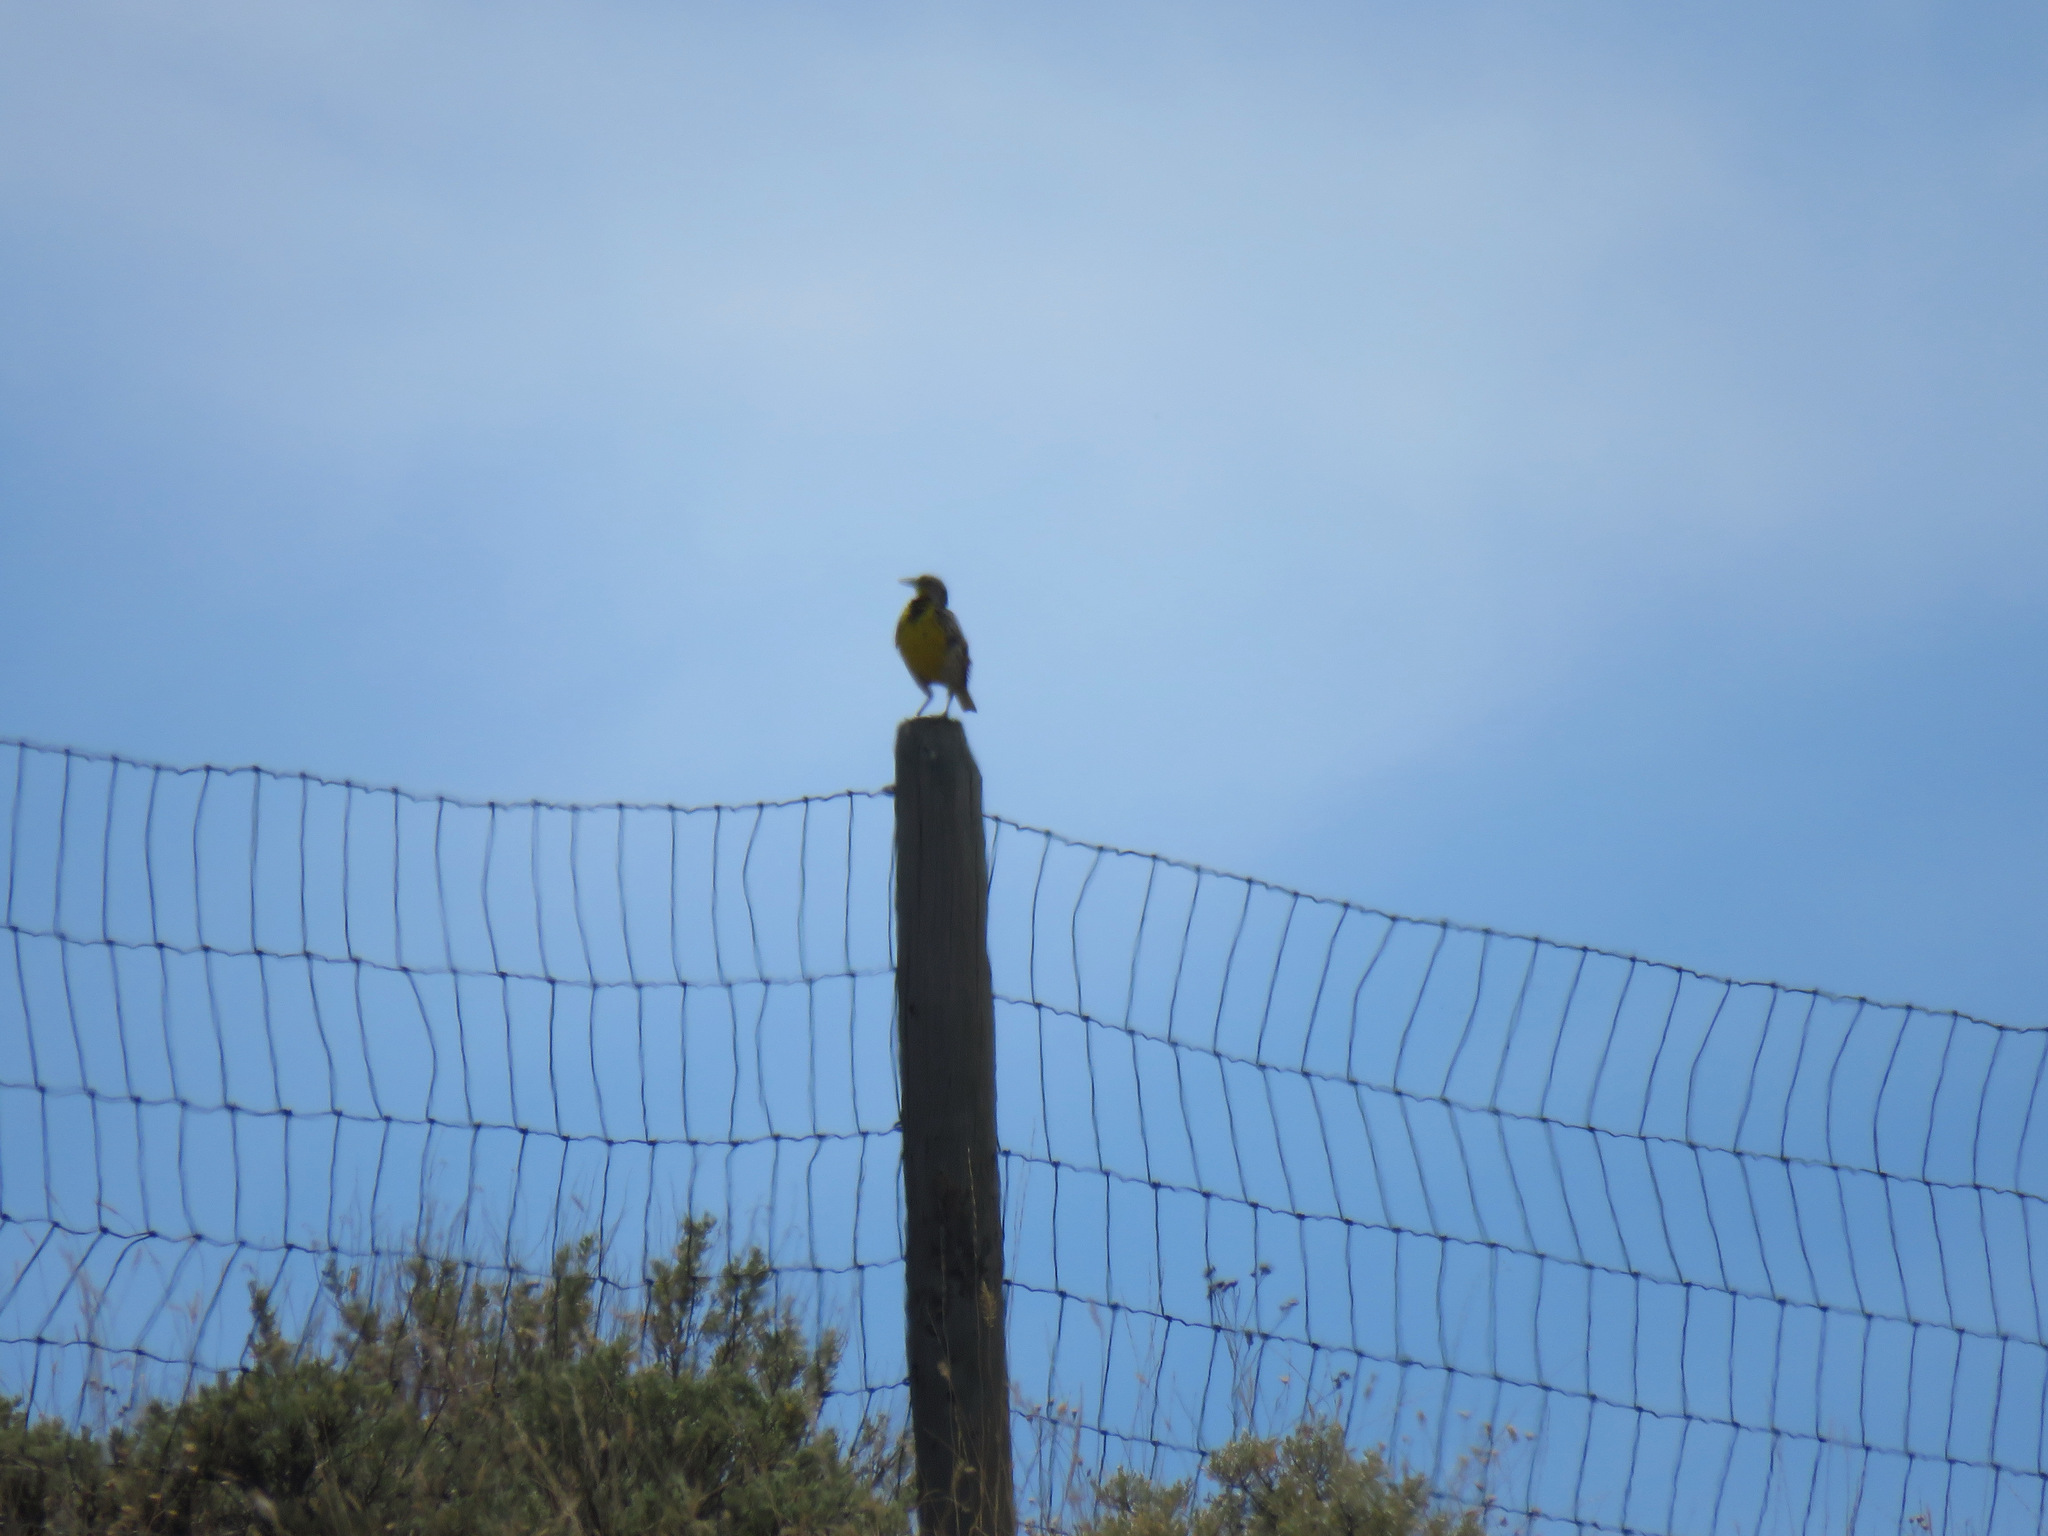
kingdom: Animalia
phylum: Chordata
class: Aves
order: Passeriformes
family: Icteridae
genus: Sturnella
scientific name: Sturnella neglecta
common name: Western meadowlark
